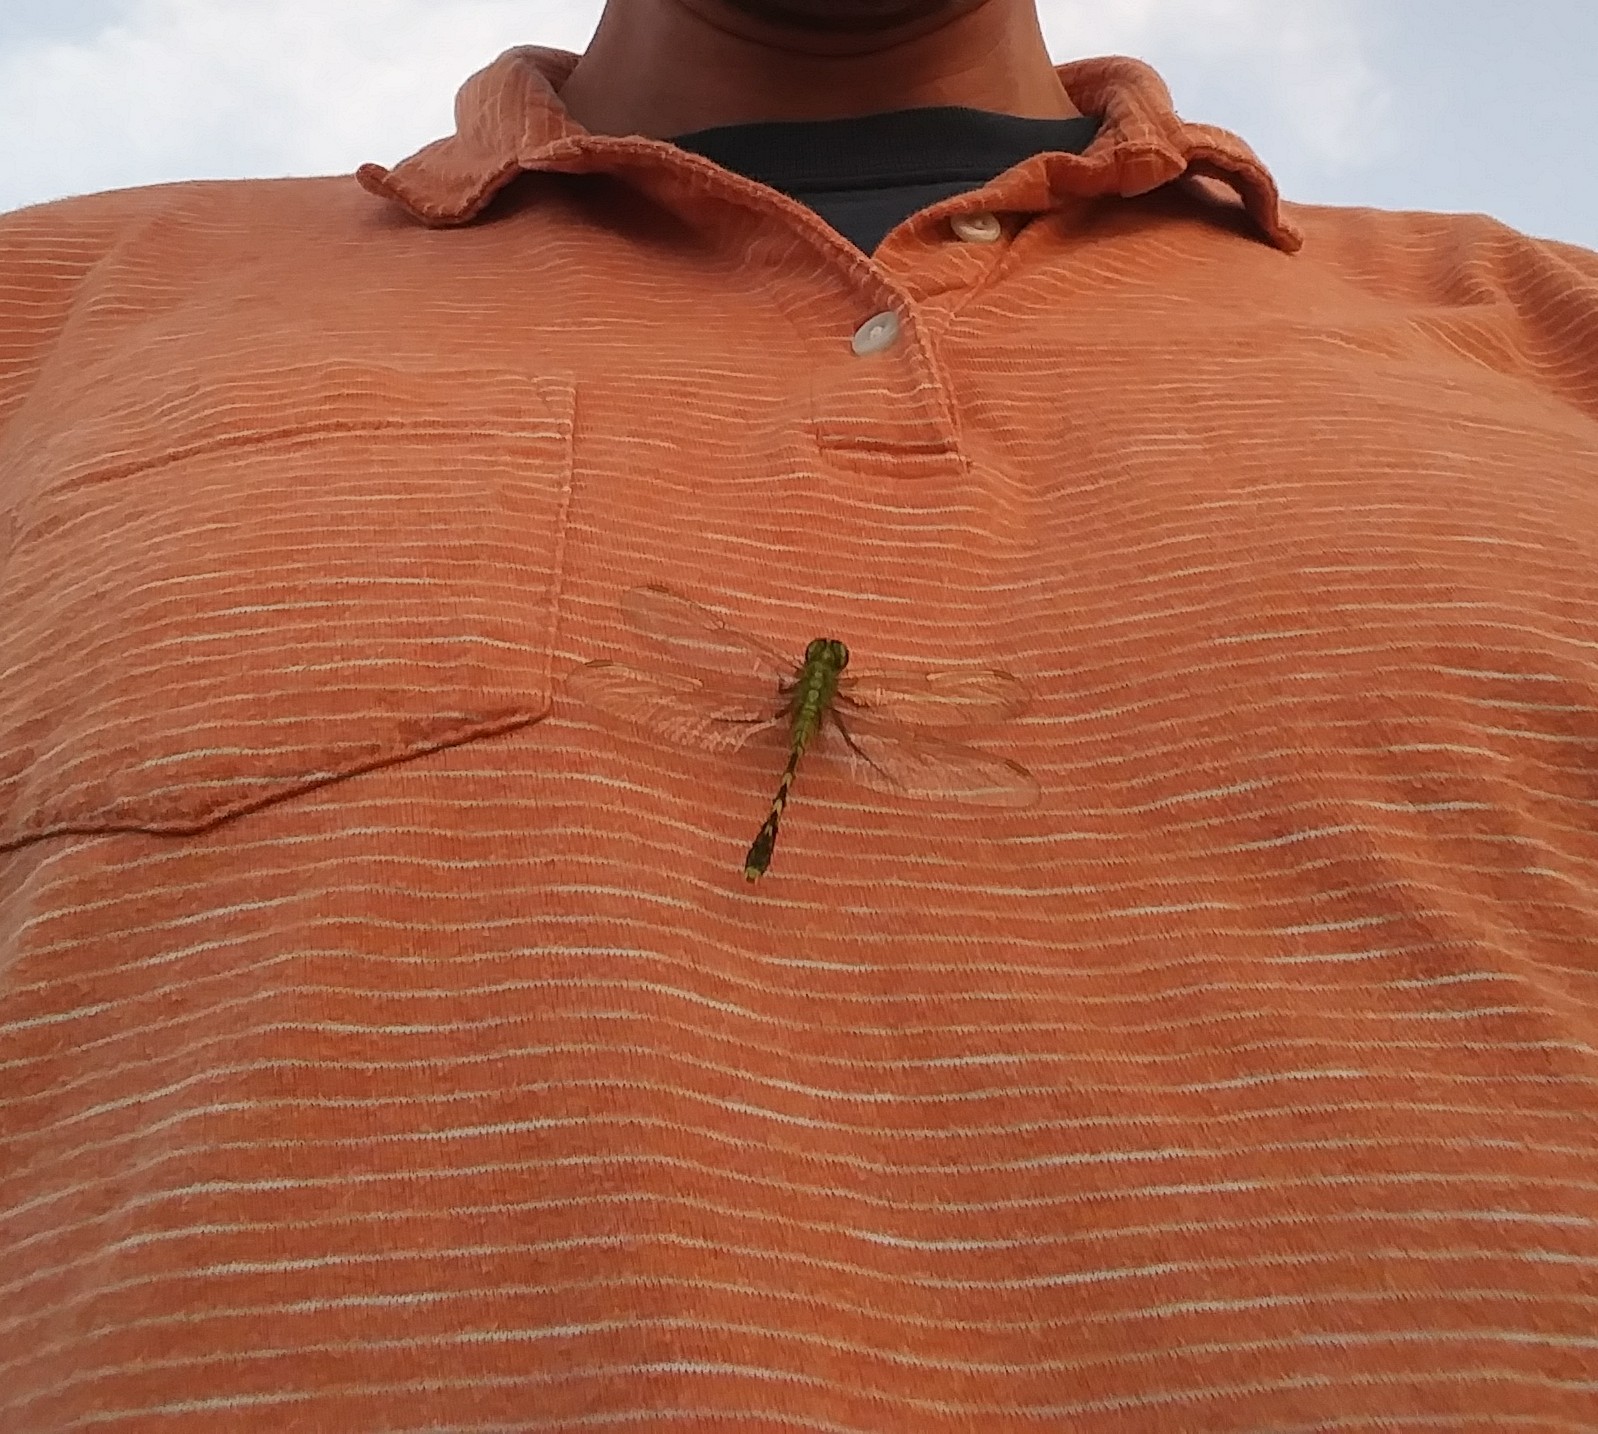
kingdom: Animalia
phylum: Arthropoda
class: Insecta
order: Odonata
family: Libellulidae
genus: Erythemis
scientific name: Erythemis simplicicollis
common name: Eastern pondhawk
